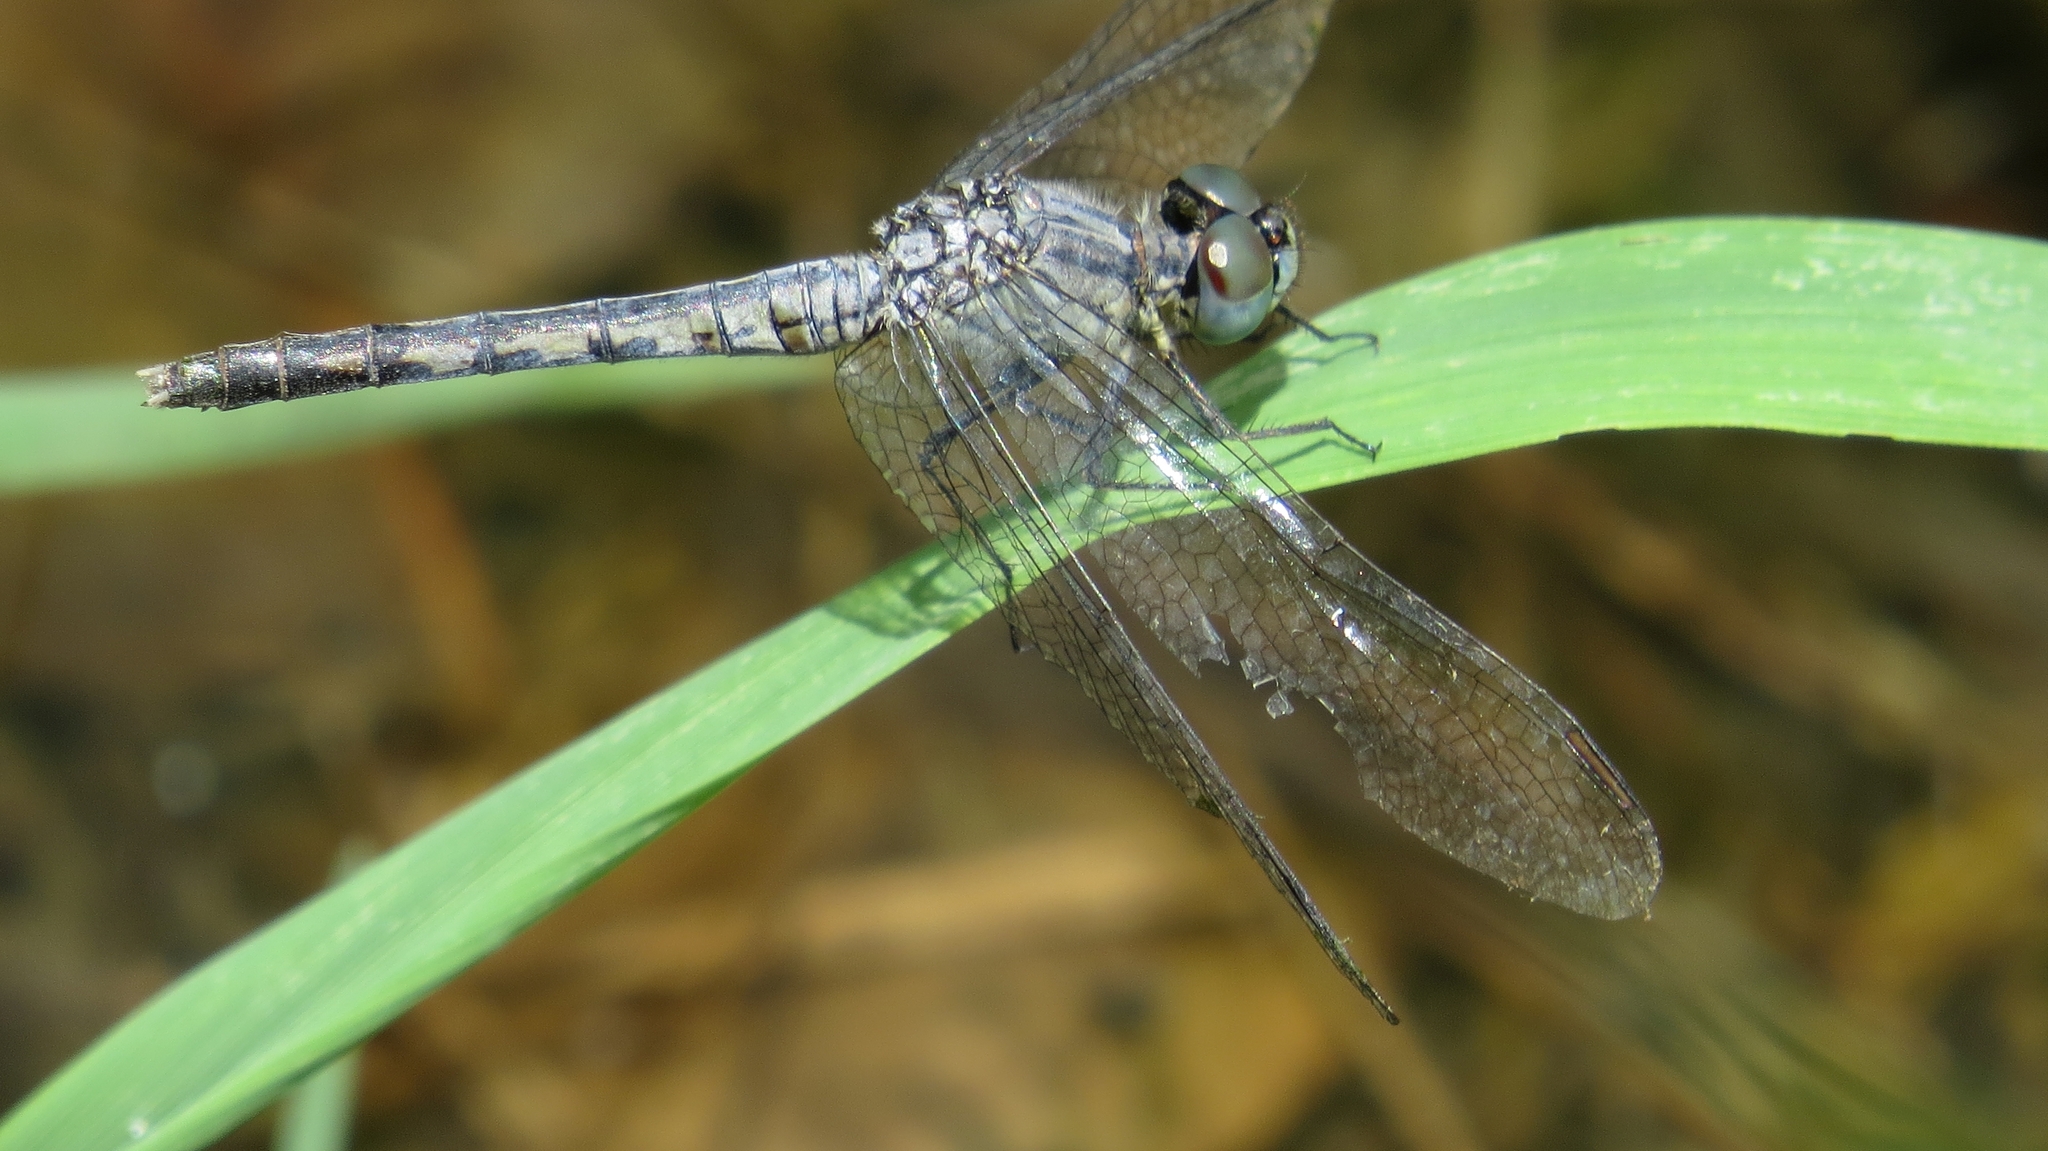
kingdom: Animalia
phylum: Arthropoda
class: Insecta
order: Odonata
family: Libellulidae
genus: Diplacodes
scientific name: Diplacodes trivialis
